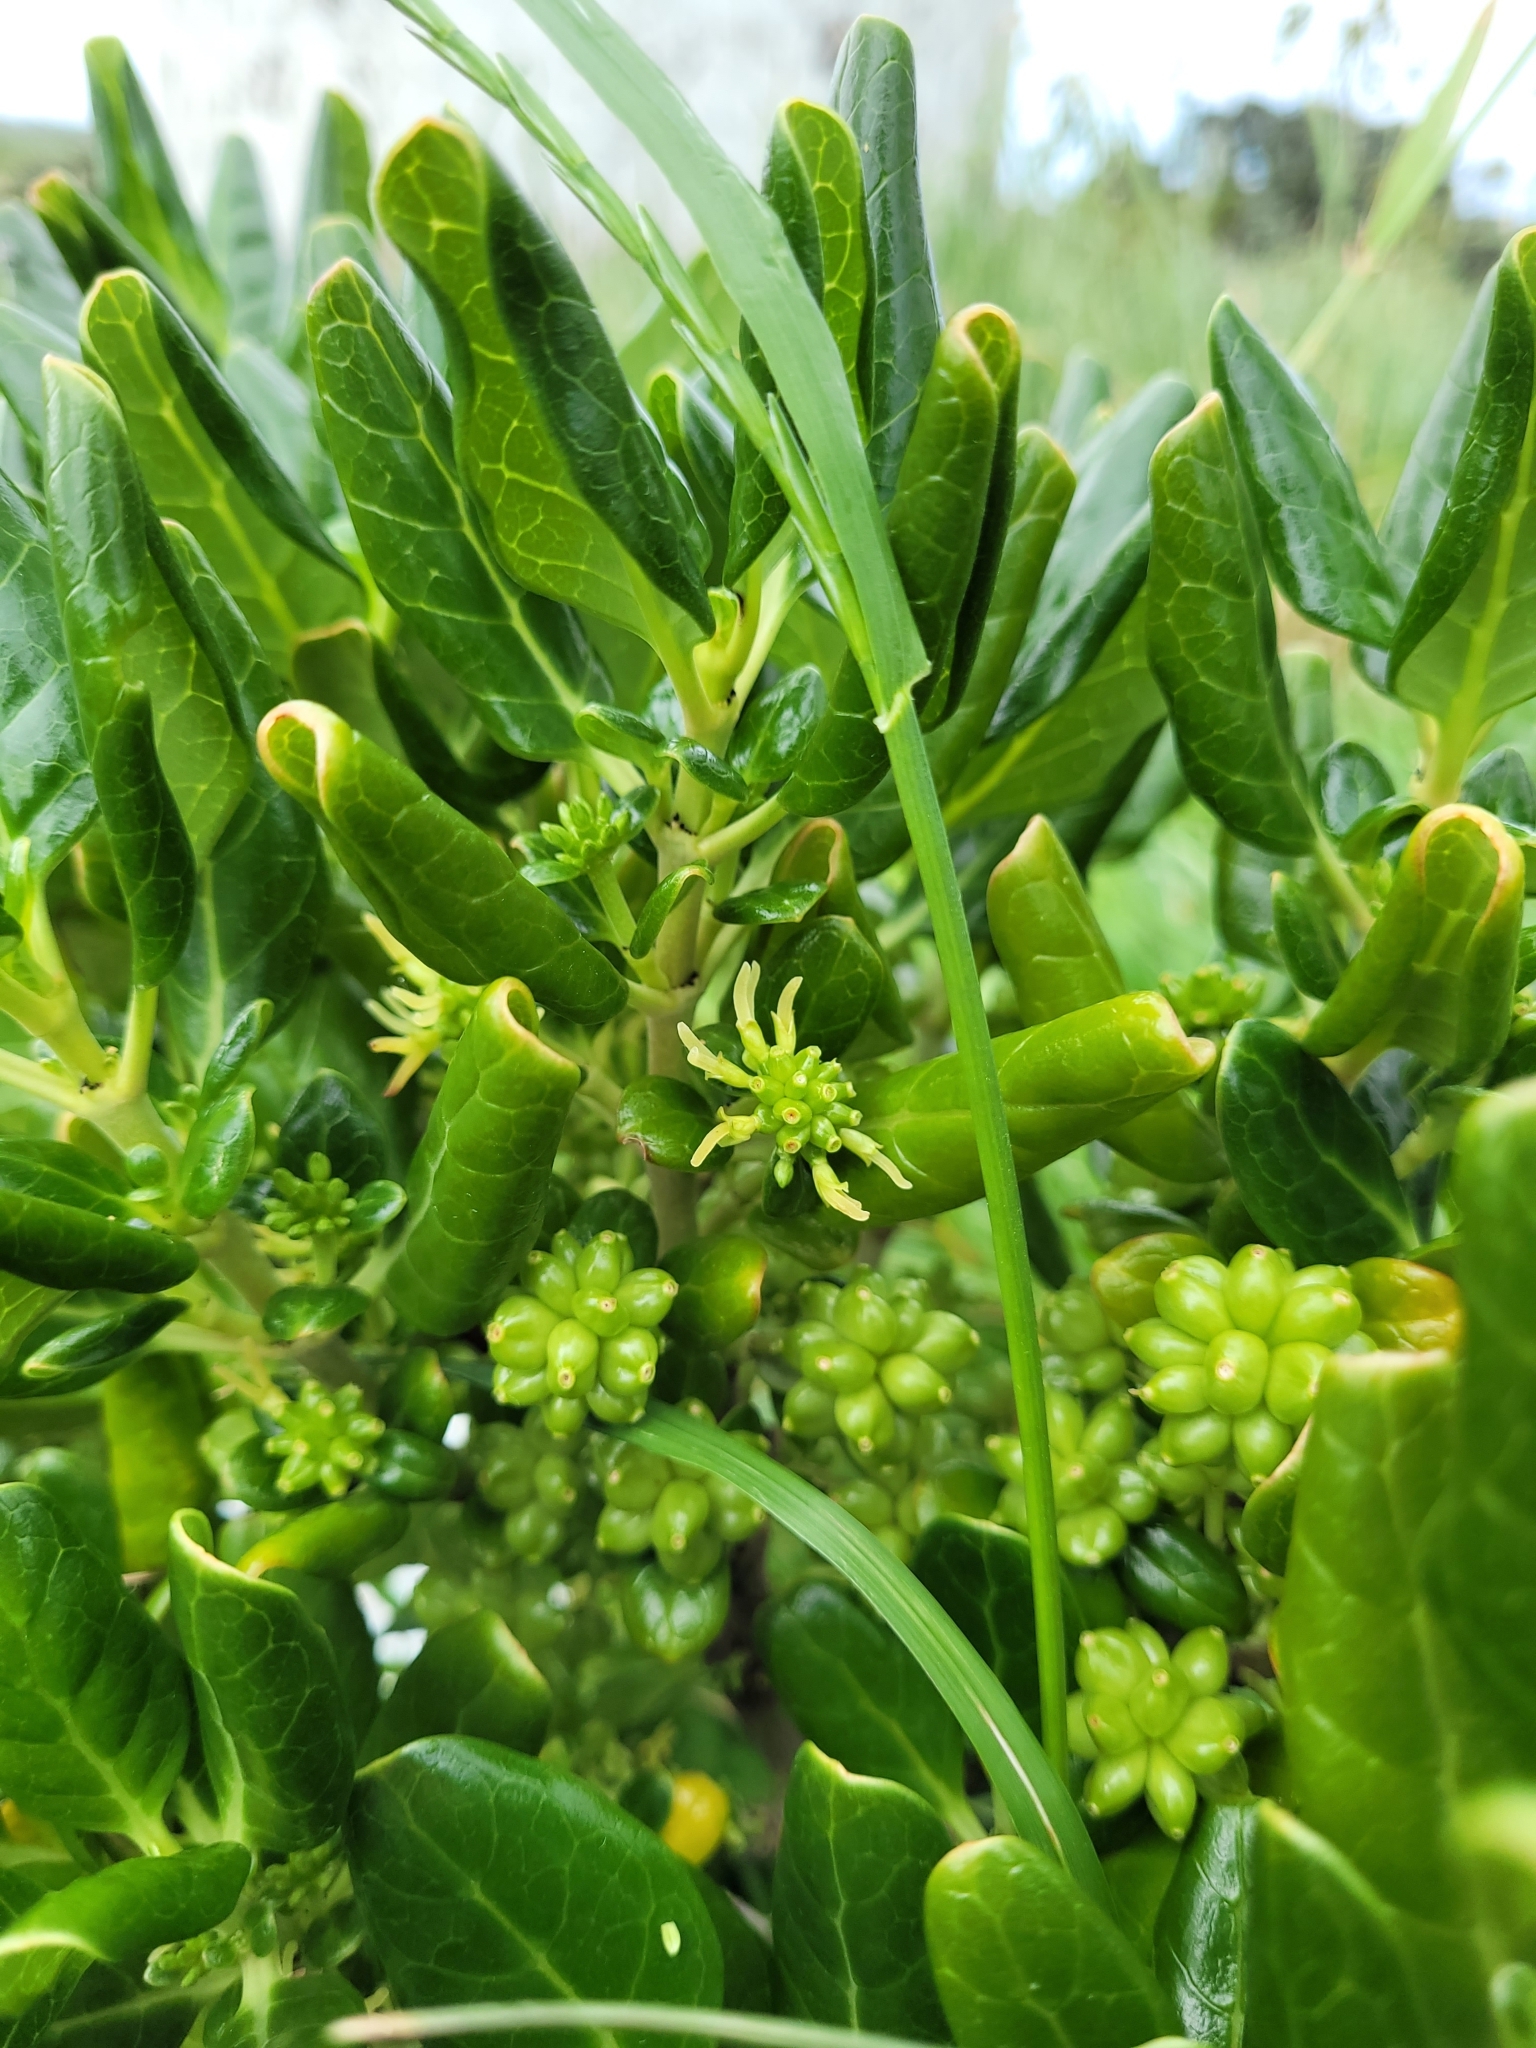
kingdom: Plantae
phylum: Tracheophyta
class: Magnoliopsida
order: Gentianales
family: Rubiaceae
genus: Coprosma
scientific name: Coprosma repens
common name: Tree bedstraw
